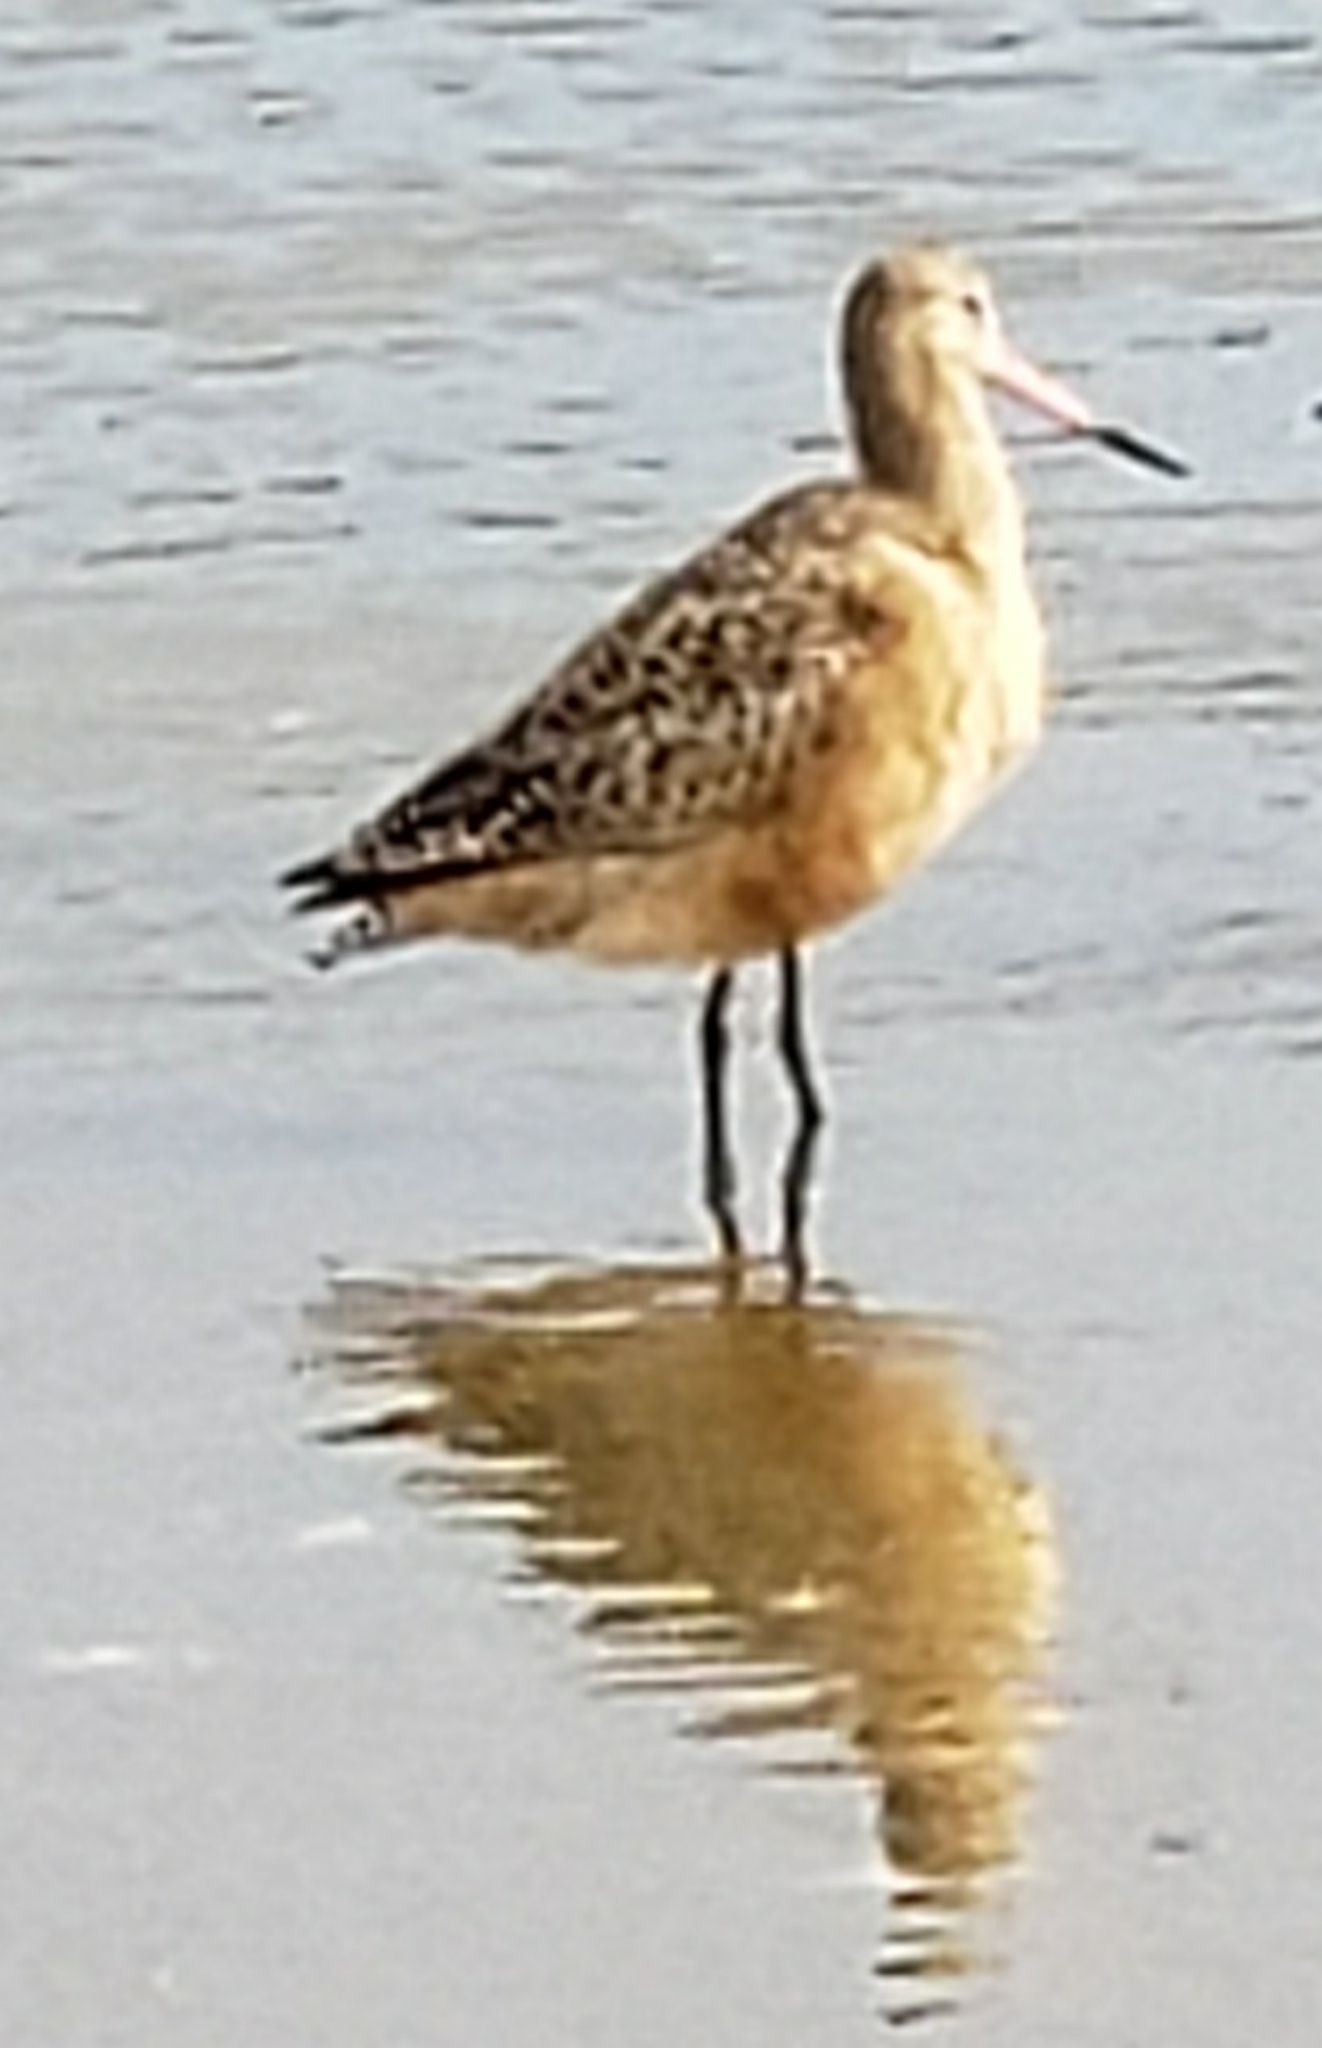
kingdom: Animalia
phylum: Chordata
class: Aves
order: Charadriiformes
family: Scolopacidae
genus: Limosa
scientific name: Limosa fedoa
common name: Marbled godwit
